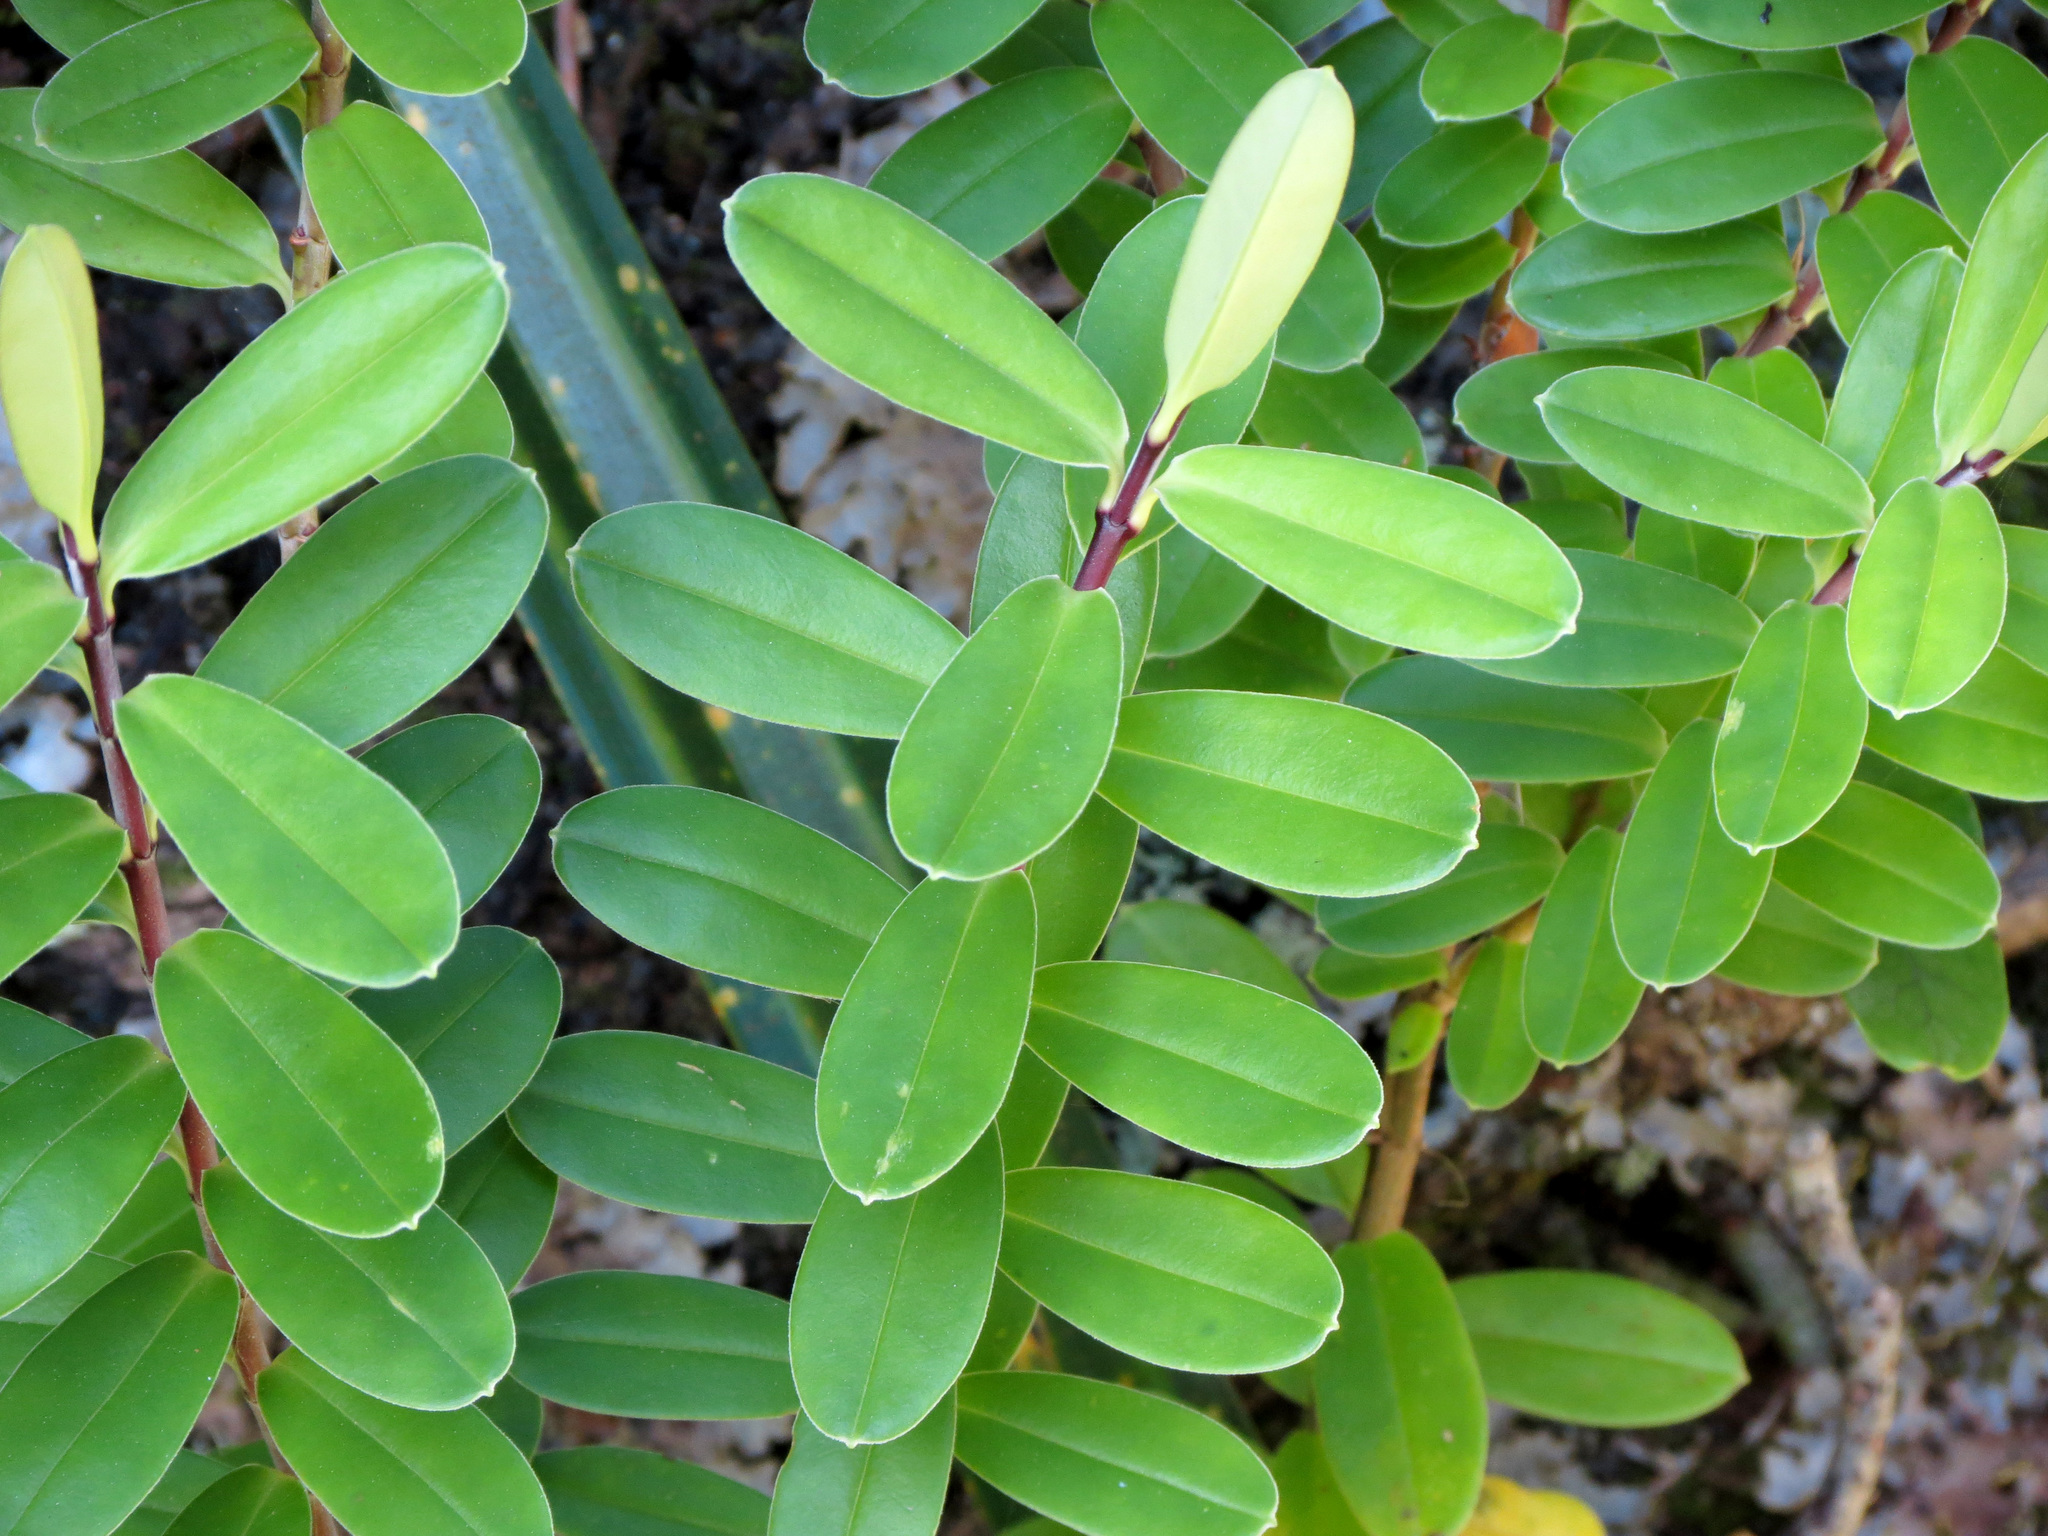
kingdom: Plantae
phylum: Tracheophyta
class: Magnoliopsida
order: Lamiales
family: Plantaginaceae
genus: Veronica
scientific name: Veronica elliptica
